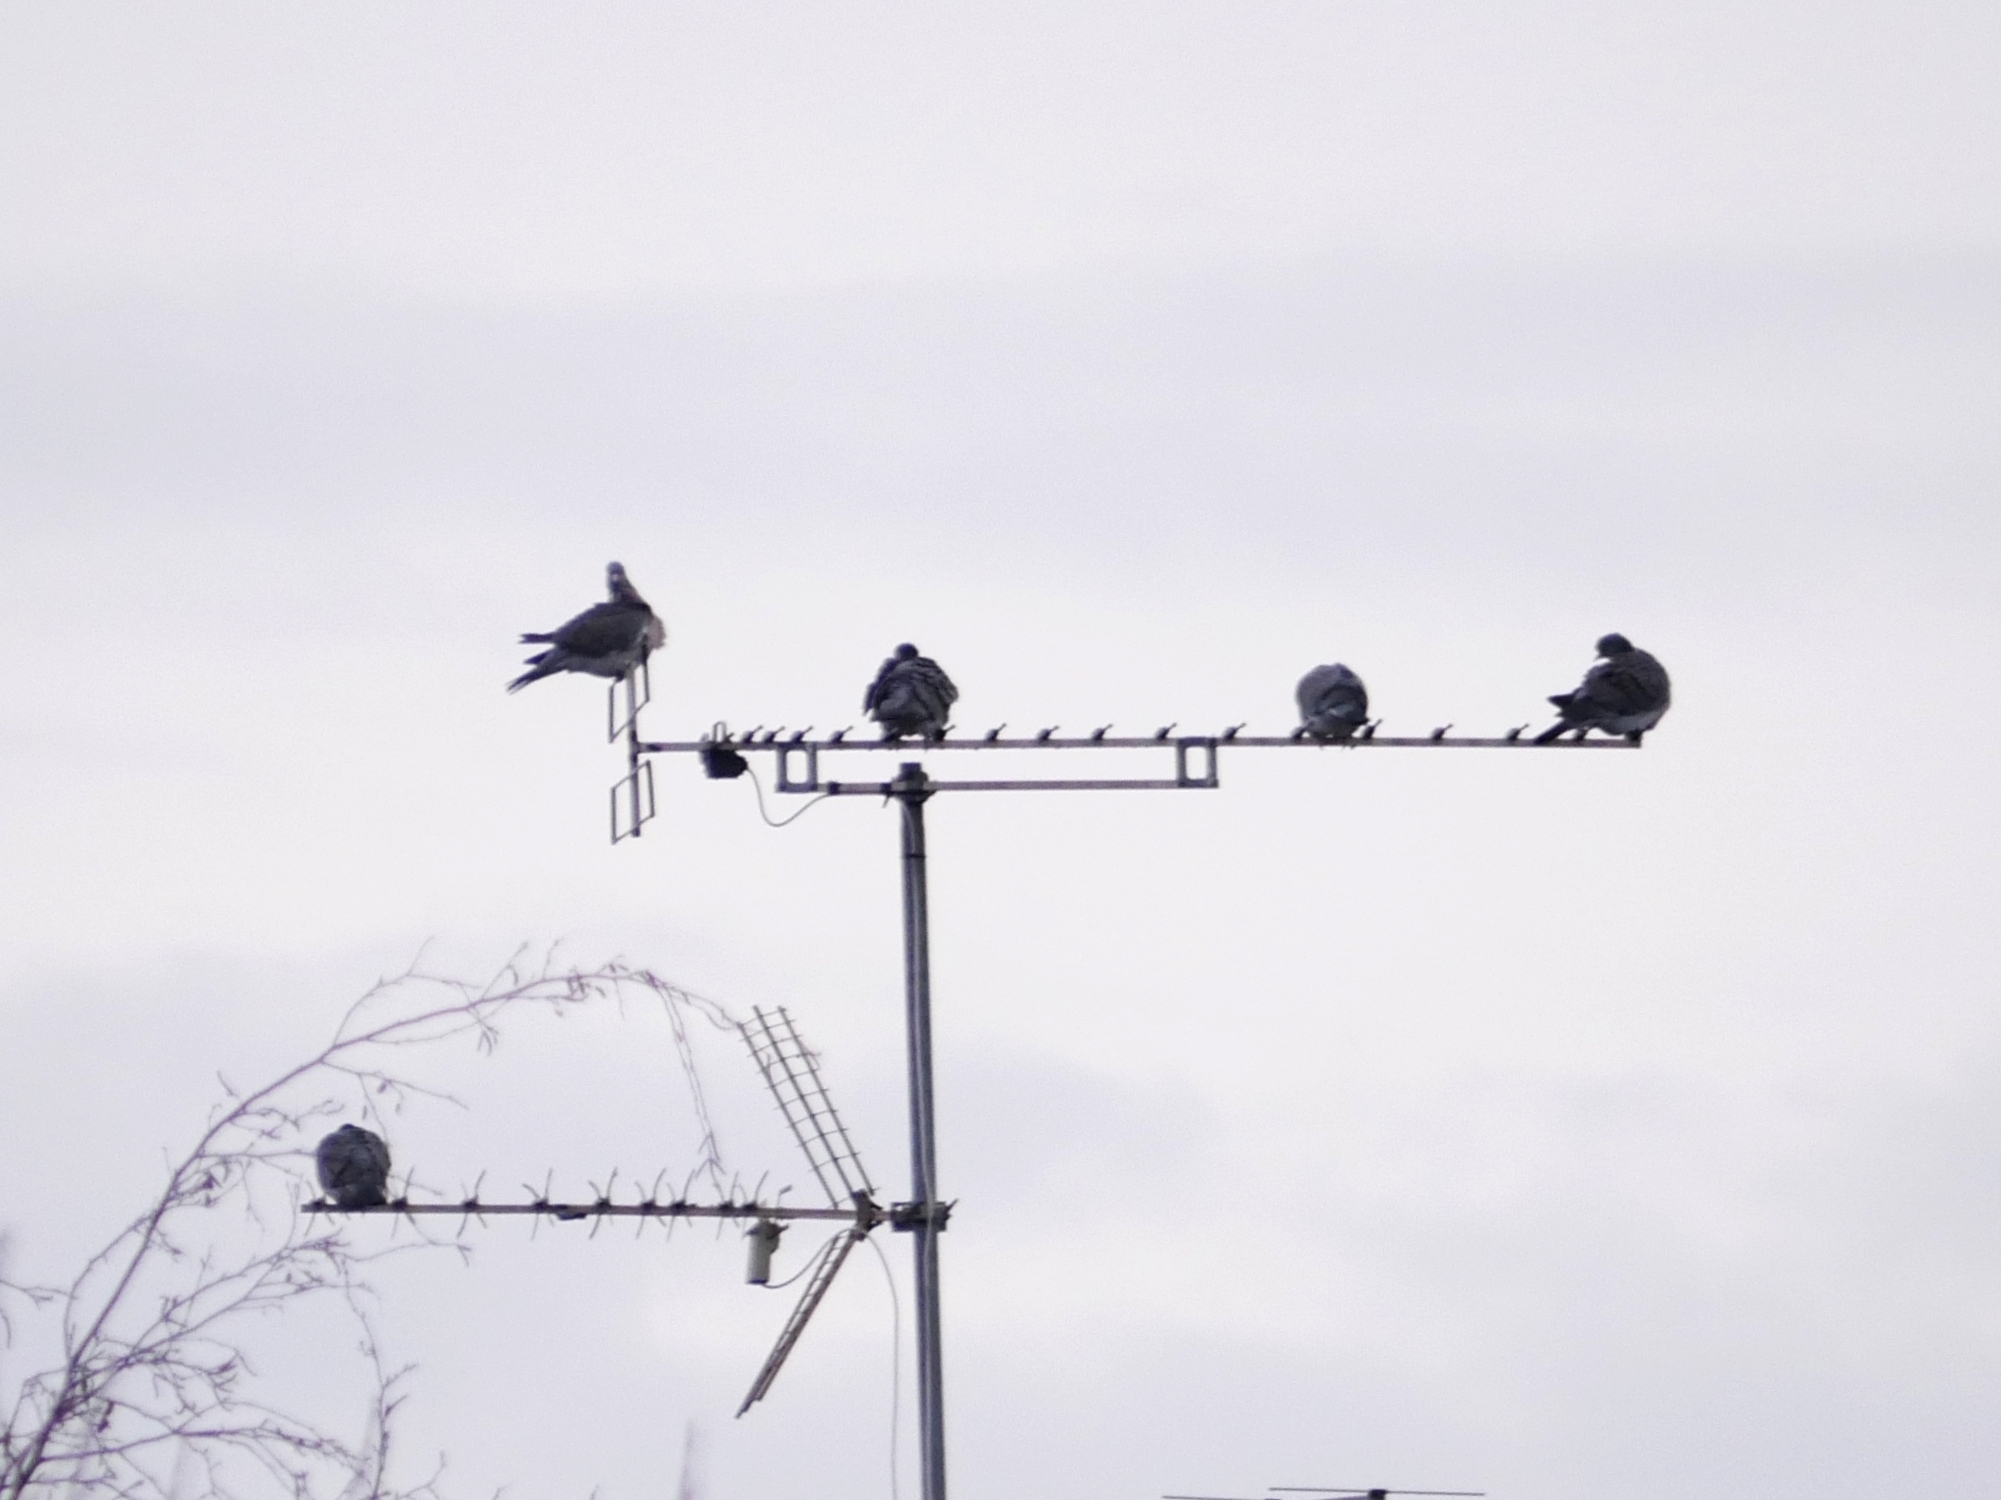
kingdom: Animalia
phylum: Chordata
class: Aves
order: Columbiformes
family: Columbidae
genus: Columba
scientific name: Columba livia
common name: Rock pigeon
